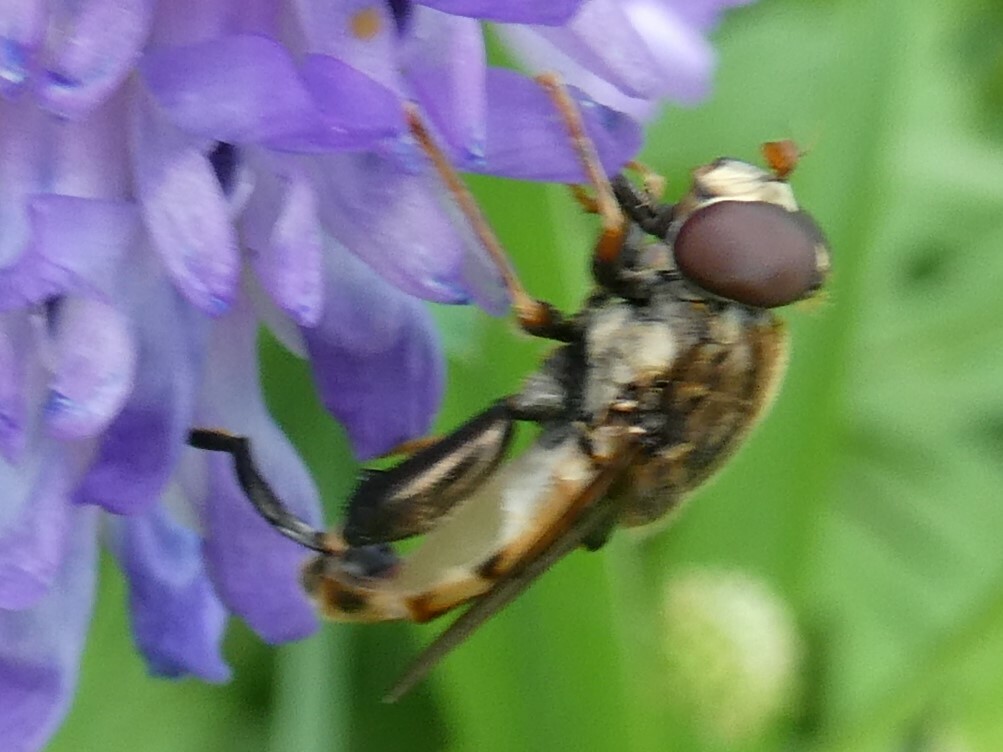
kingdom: Animalia
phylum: Arthropoda
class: Insecta
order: Diptera
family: Syrphidae
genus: Tropidia
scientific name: Tropidia quadrata
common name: Common thick-legged fly
